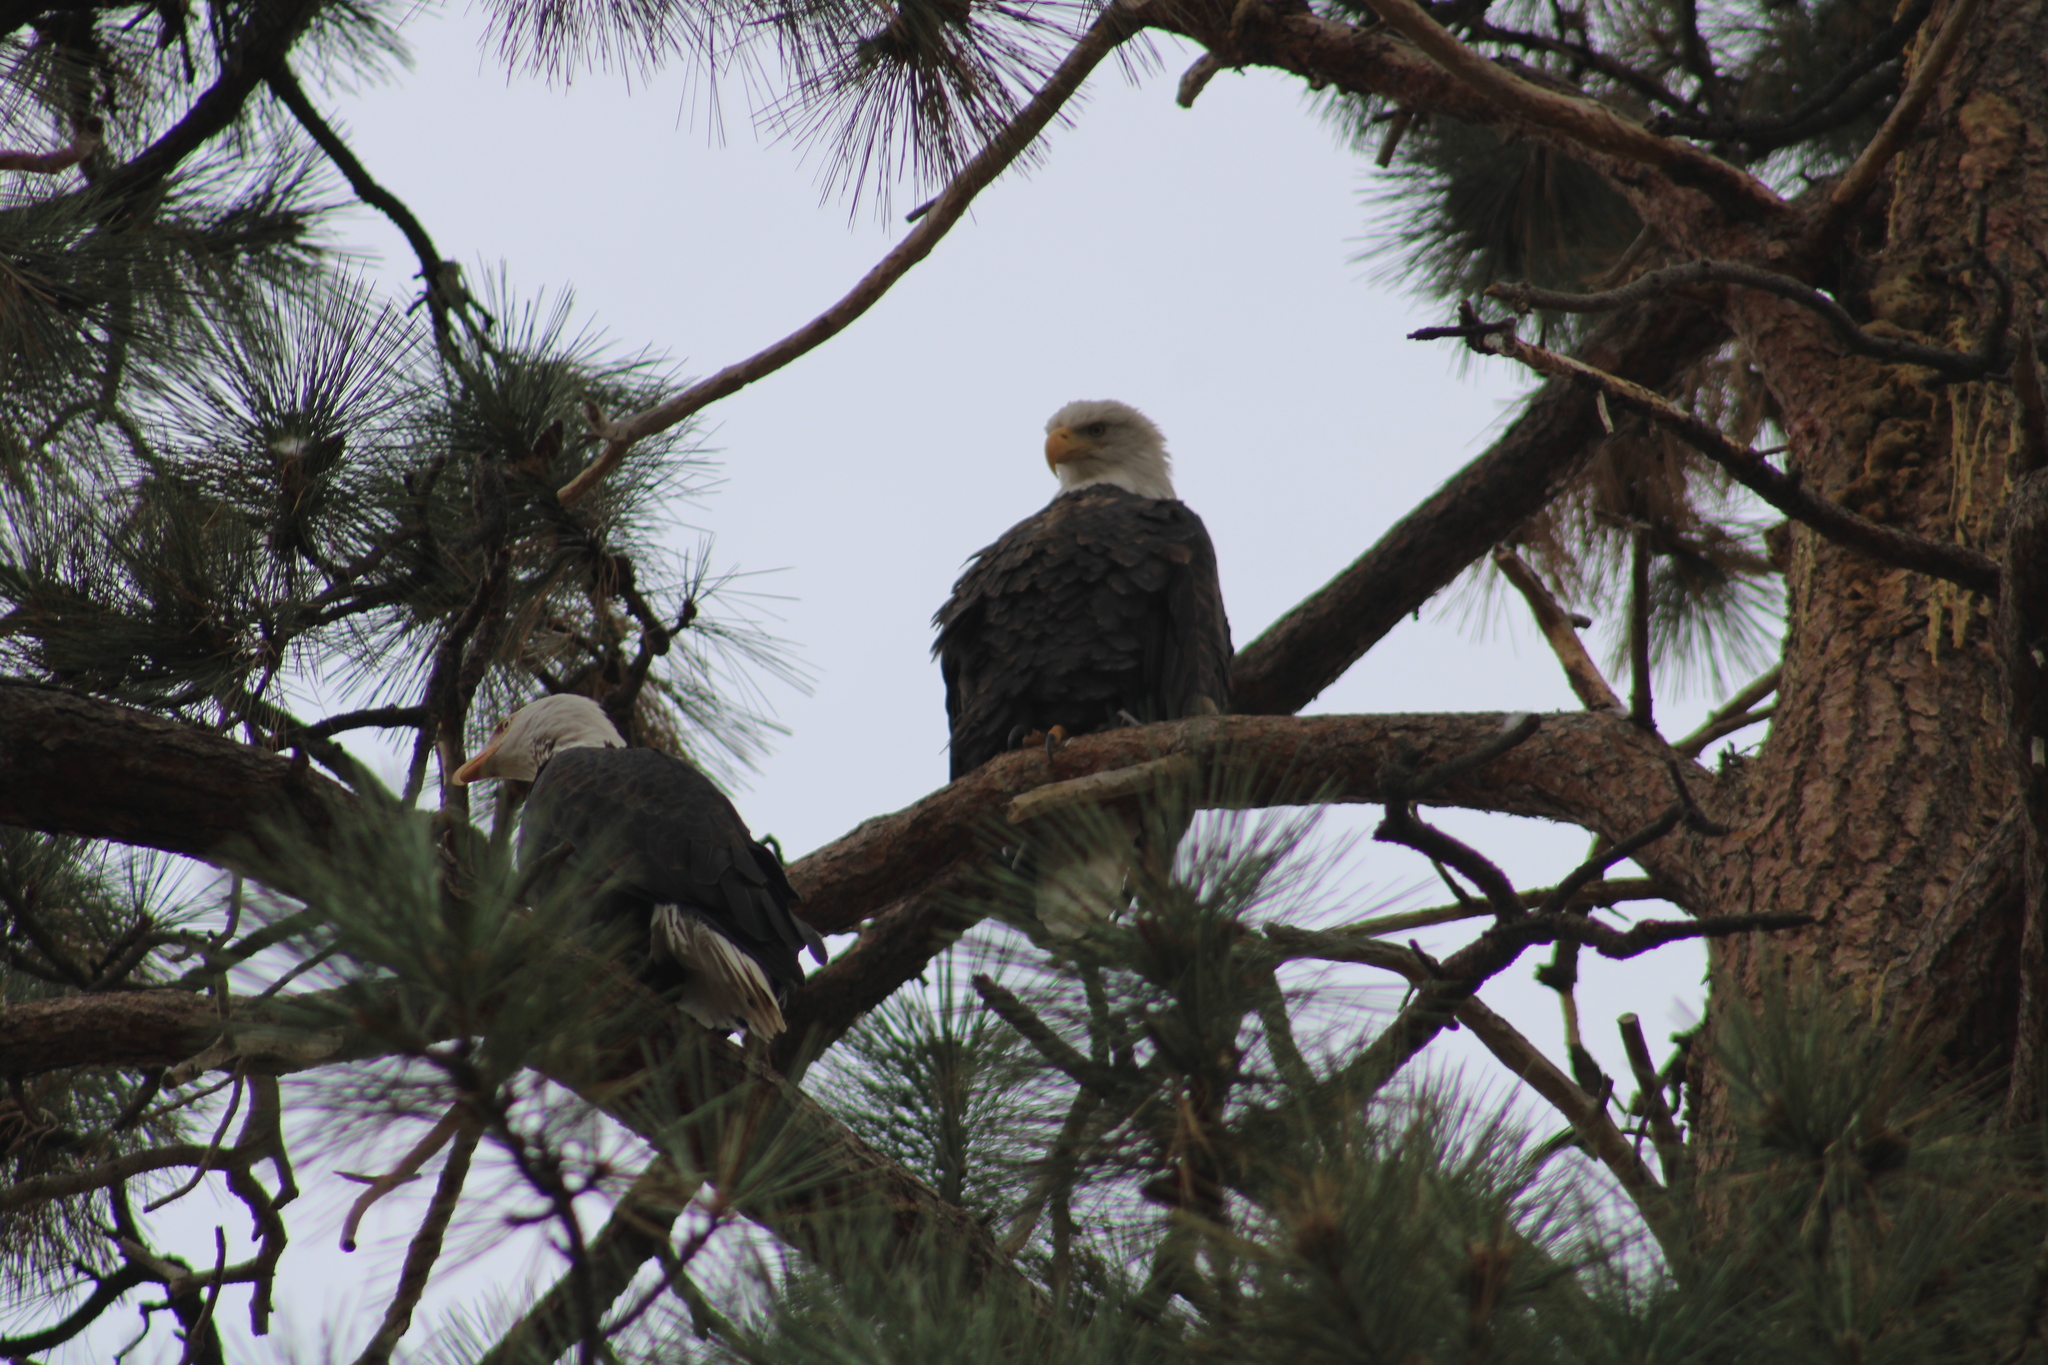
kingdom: Animalia
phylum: Chordata
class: Aves
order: Accipitriformes
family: Accipitridae
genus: Haliaeetus
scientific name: Haliaeetus leucocephalus
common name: Bald eagle
